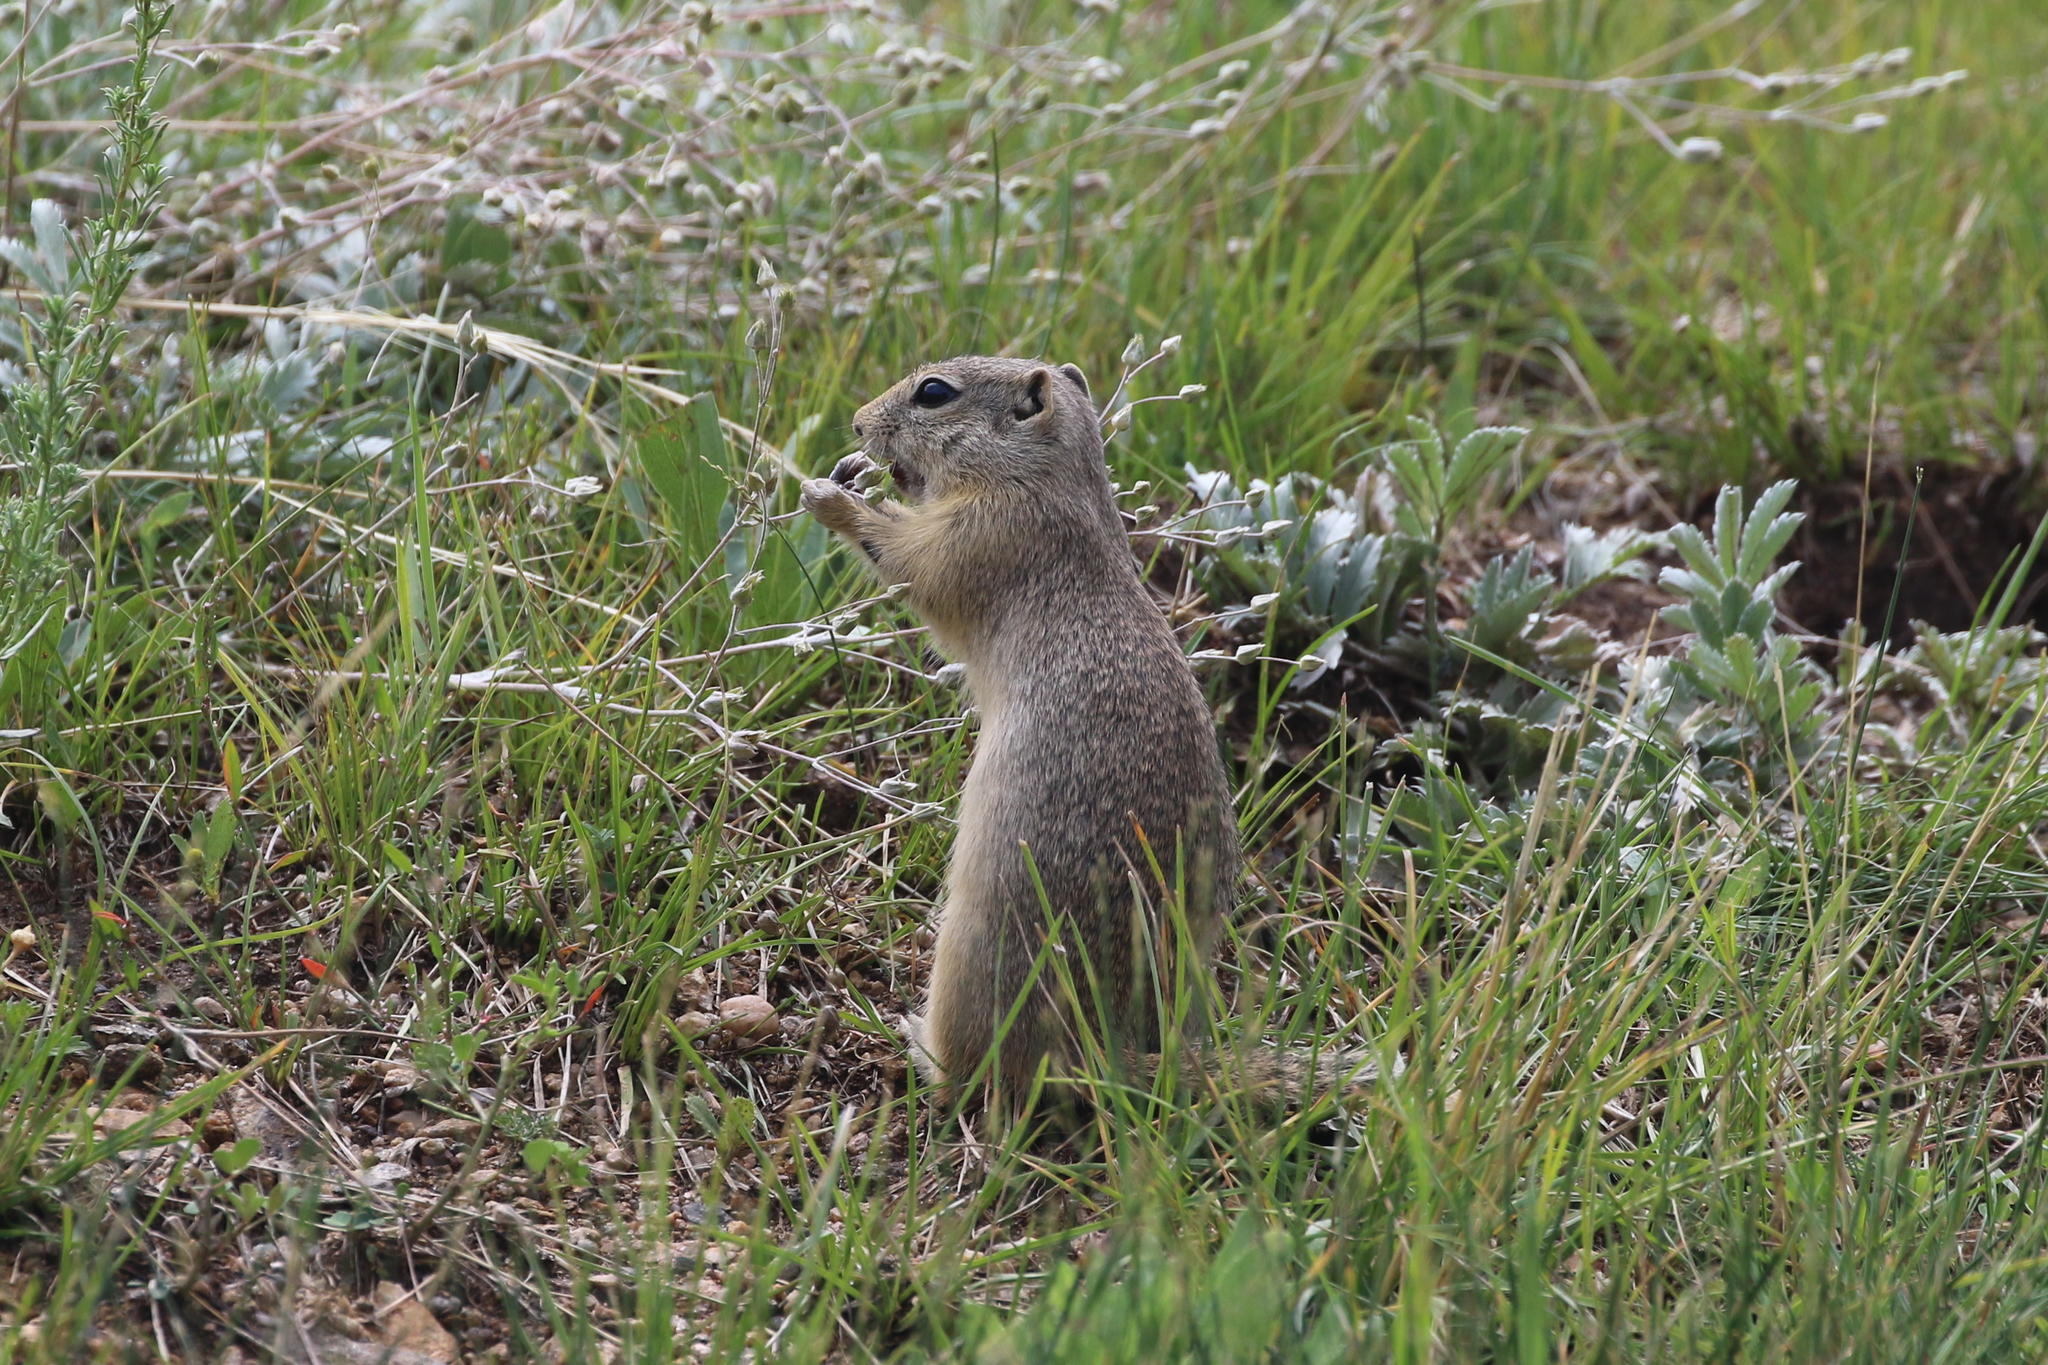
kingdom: Animalia
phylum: Chordata
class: Mammalia
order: Rodentia
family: Sciuridae
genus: Urocitellus
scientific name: Urocitellus elegans
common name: Wyoming ground squirrel
